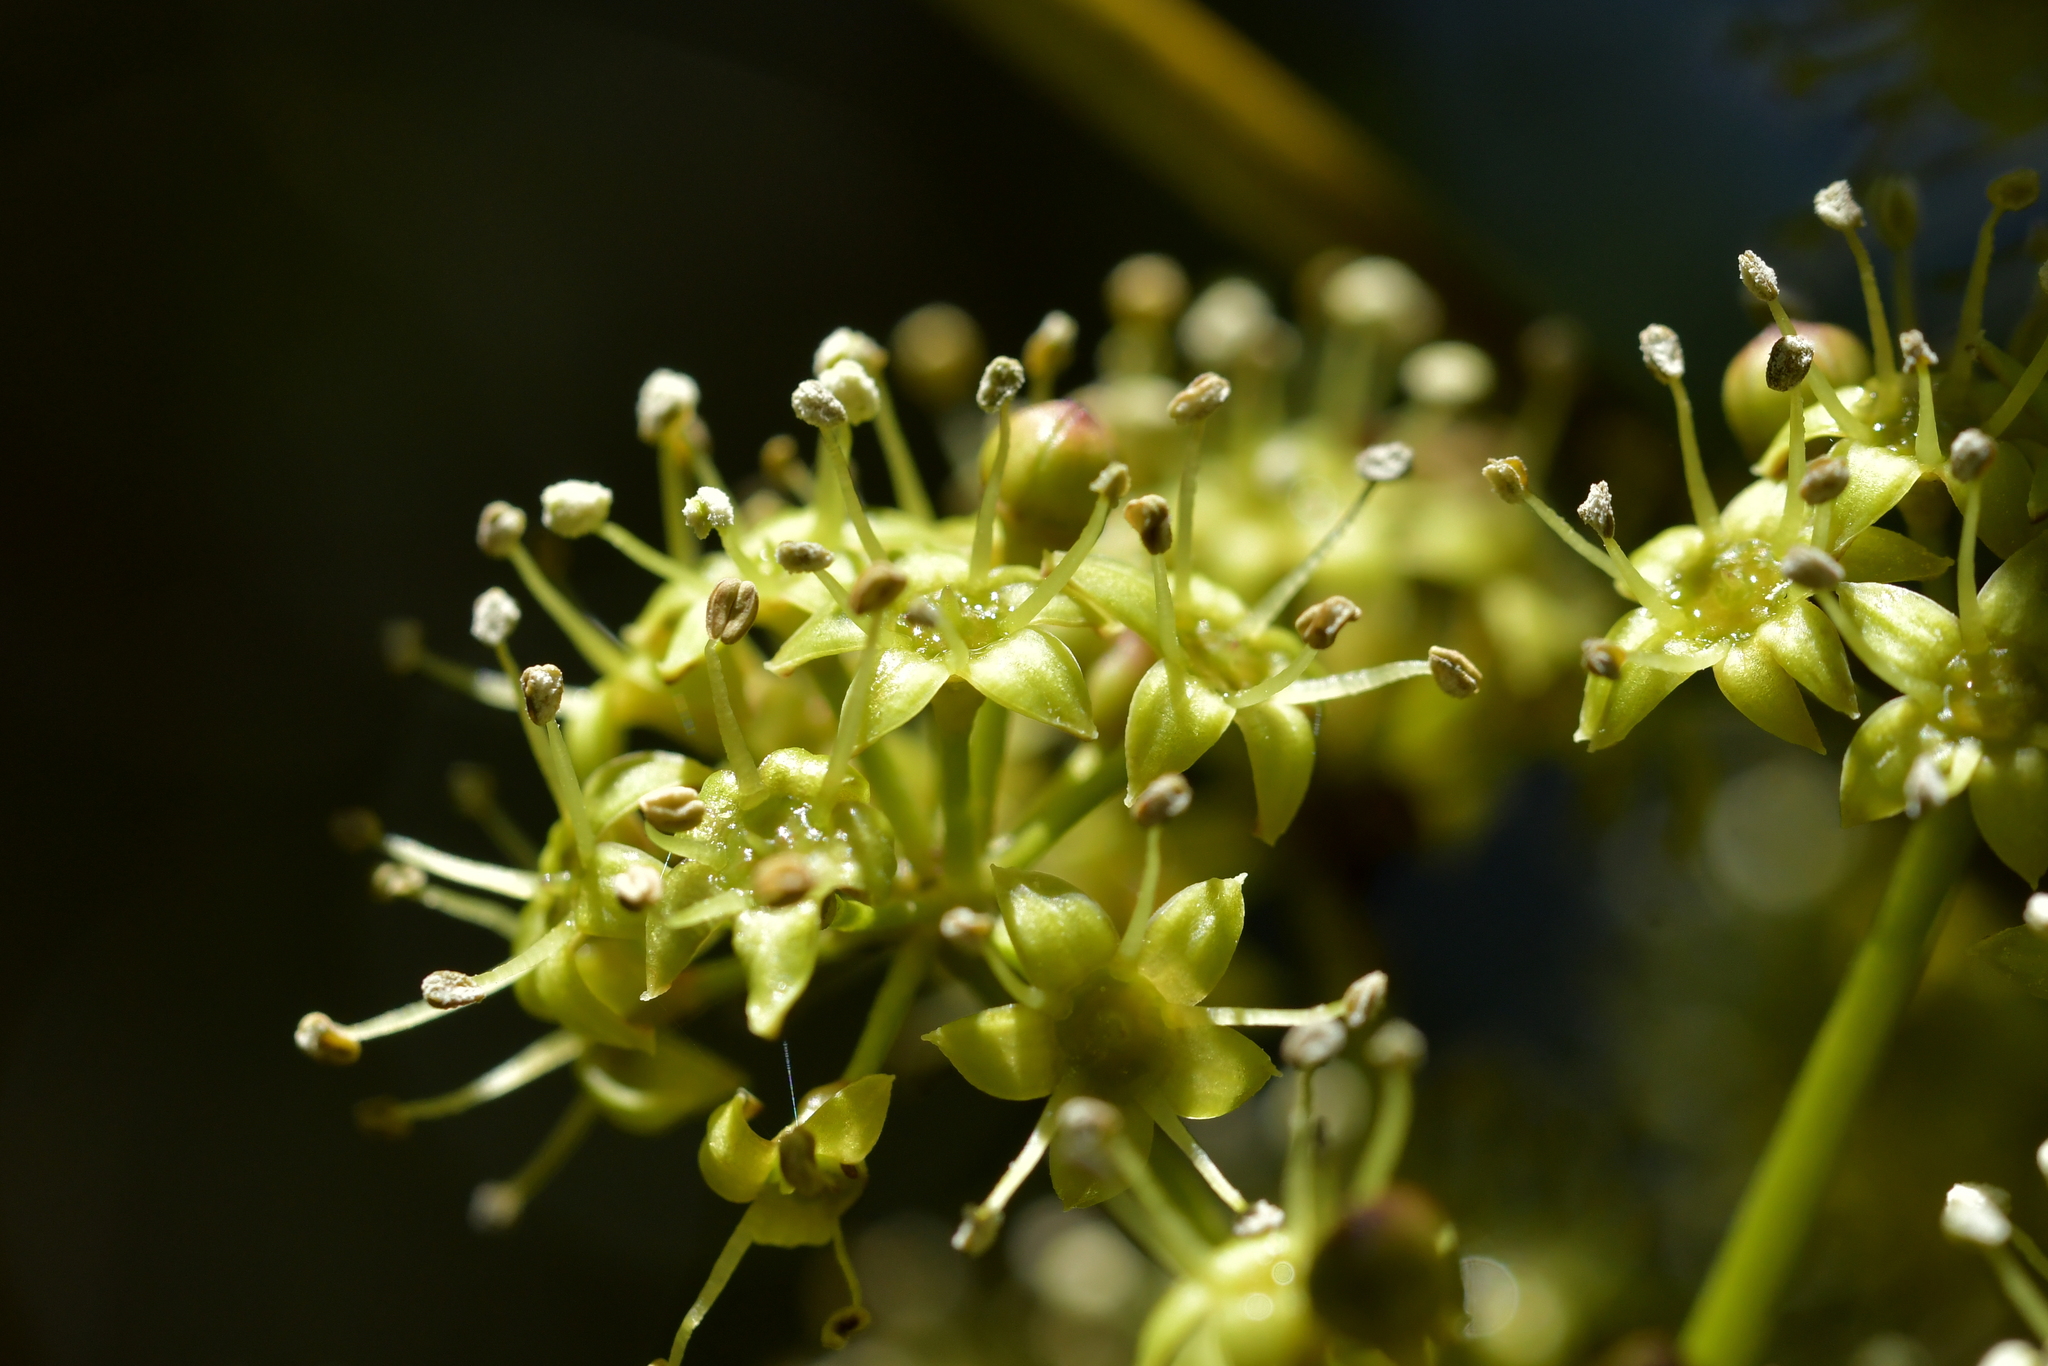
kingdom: Plantae
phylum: Tracheophyta
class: Magnoliopsida
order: Apiales
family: Araliaceae
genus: Neopanax
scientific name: Neopanax colensoi
